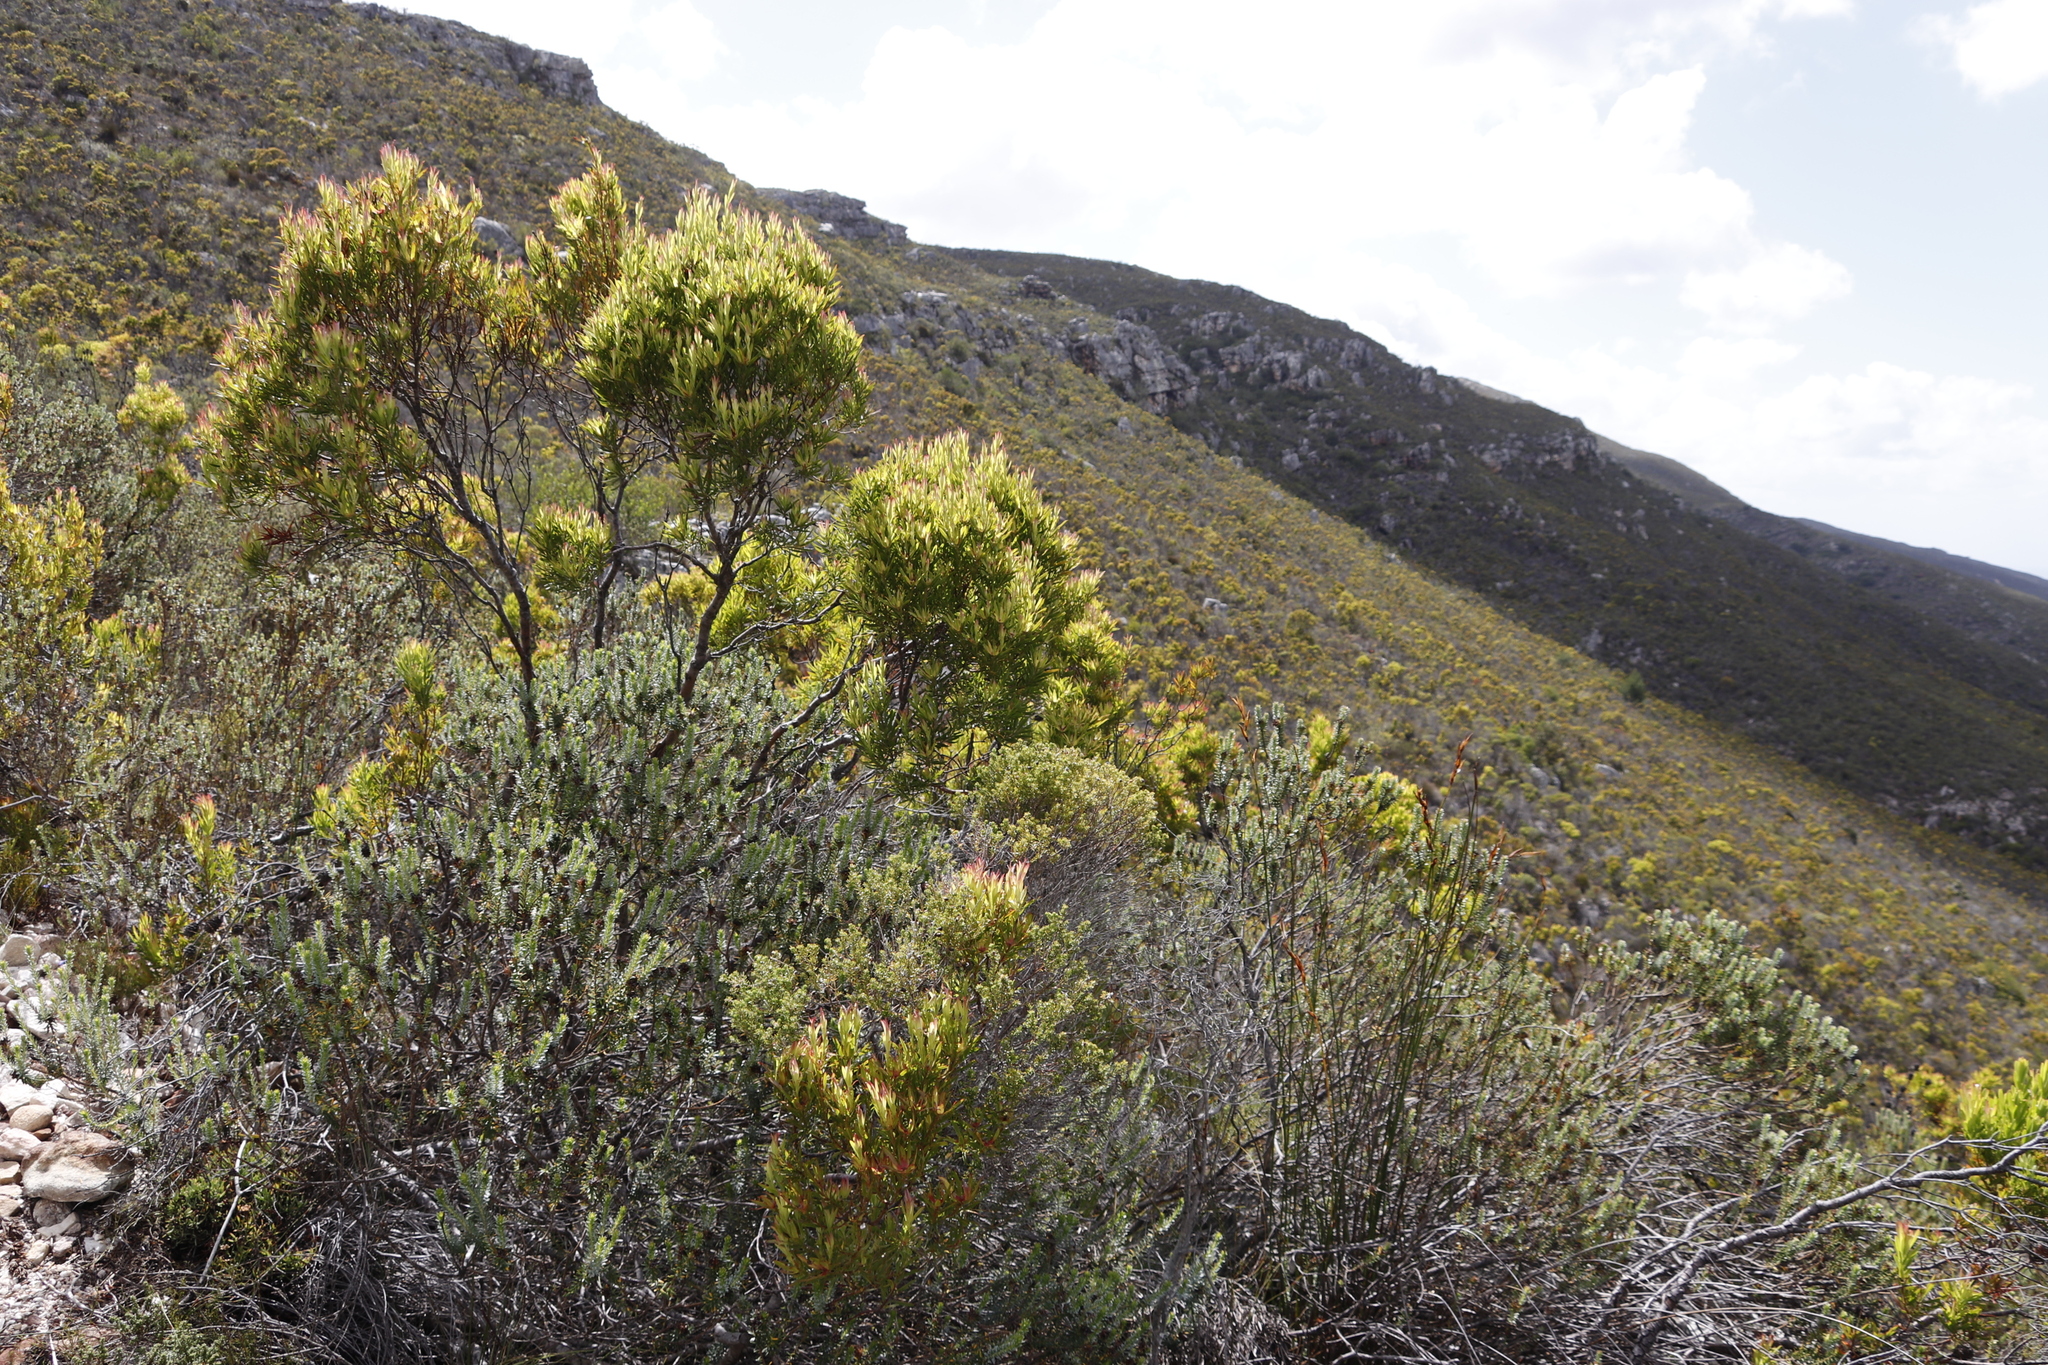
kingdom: Plantae
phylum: Tracheophyta
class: Magnoliopsida
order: Proteales
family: Proteaceae
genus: Leucadendron
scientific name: Leucadendron xanthoconus
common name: Sickle-leaf conebush
